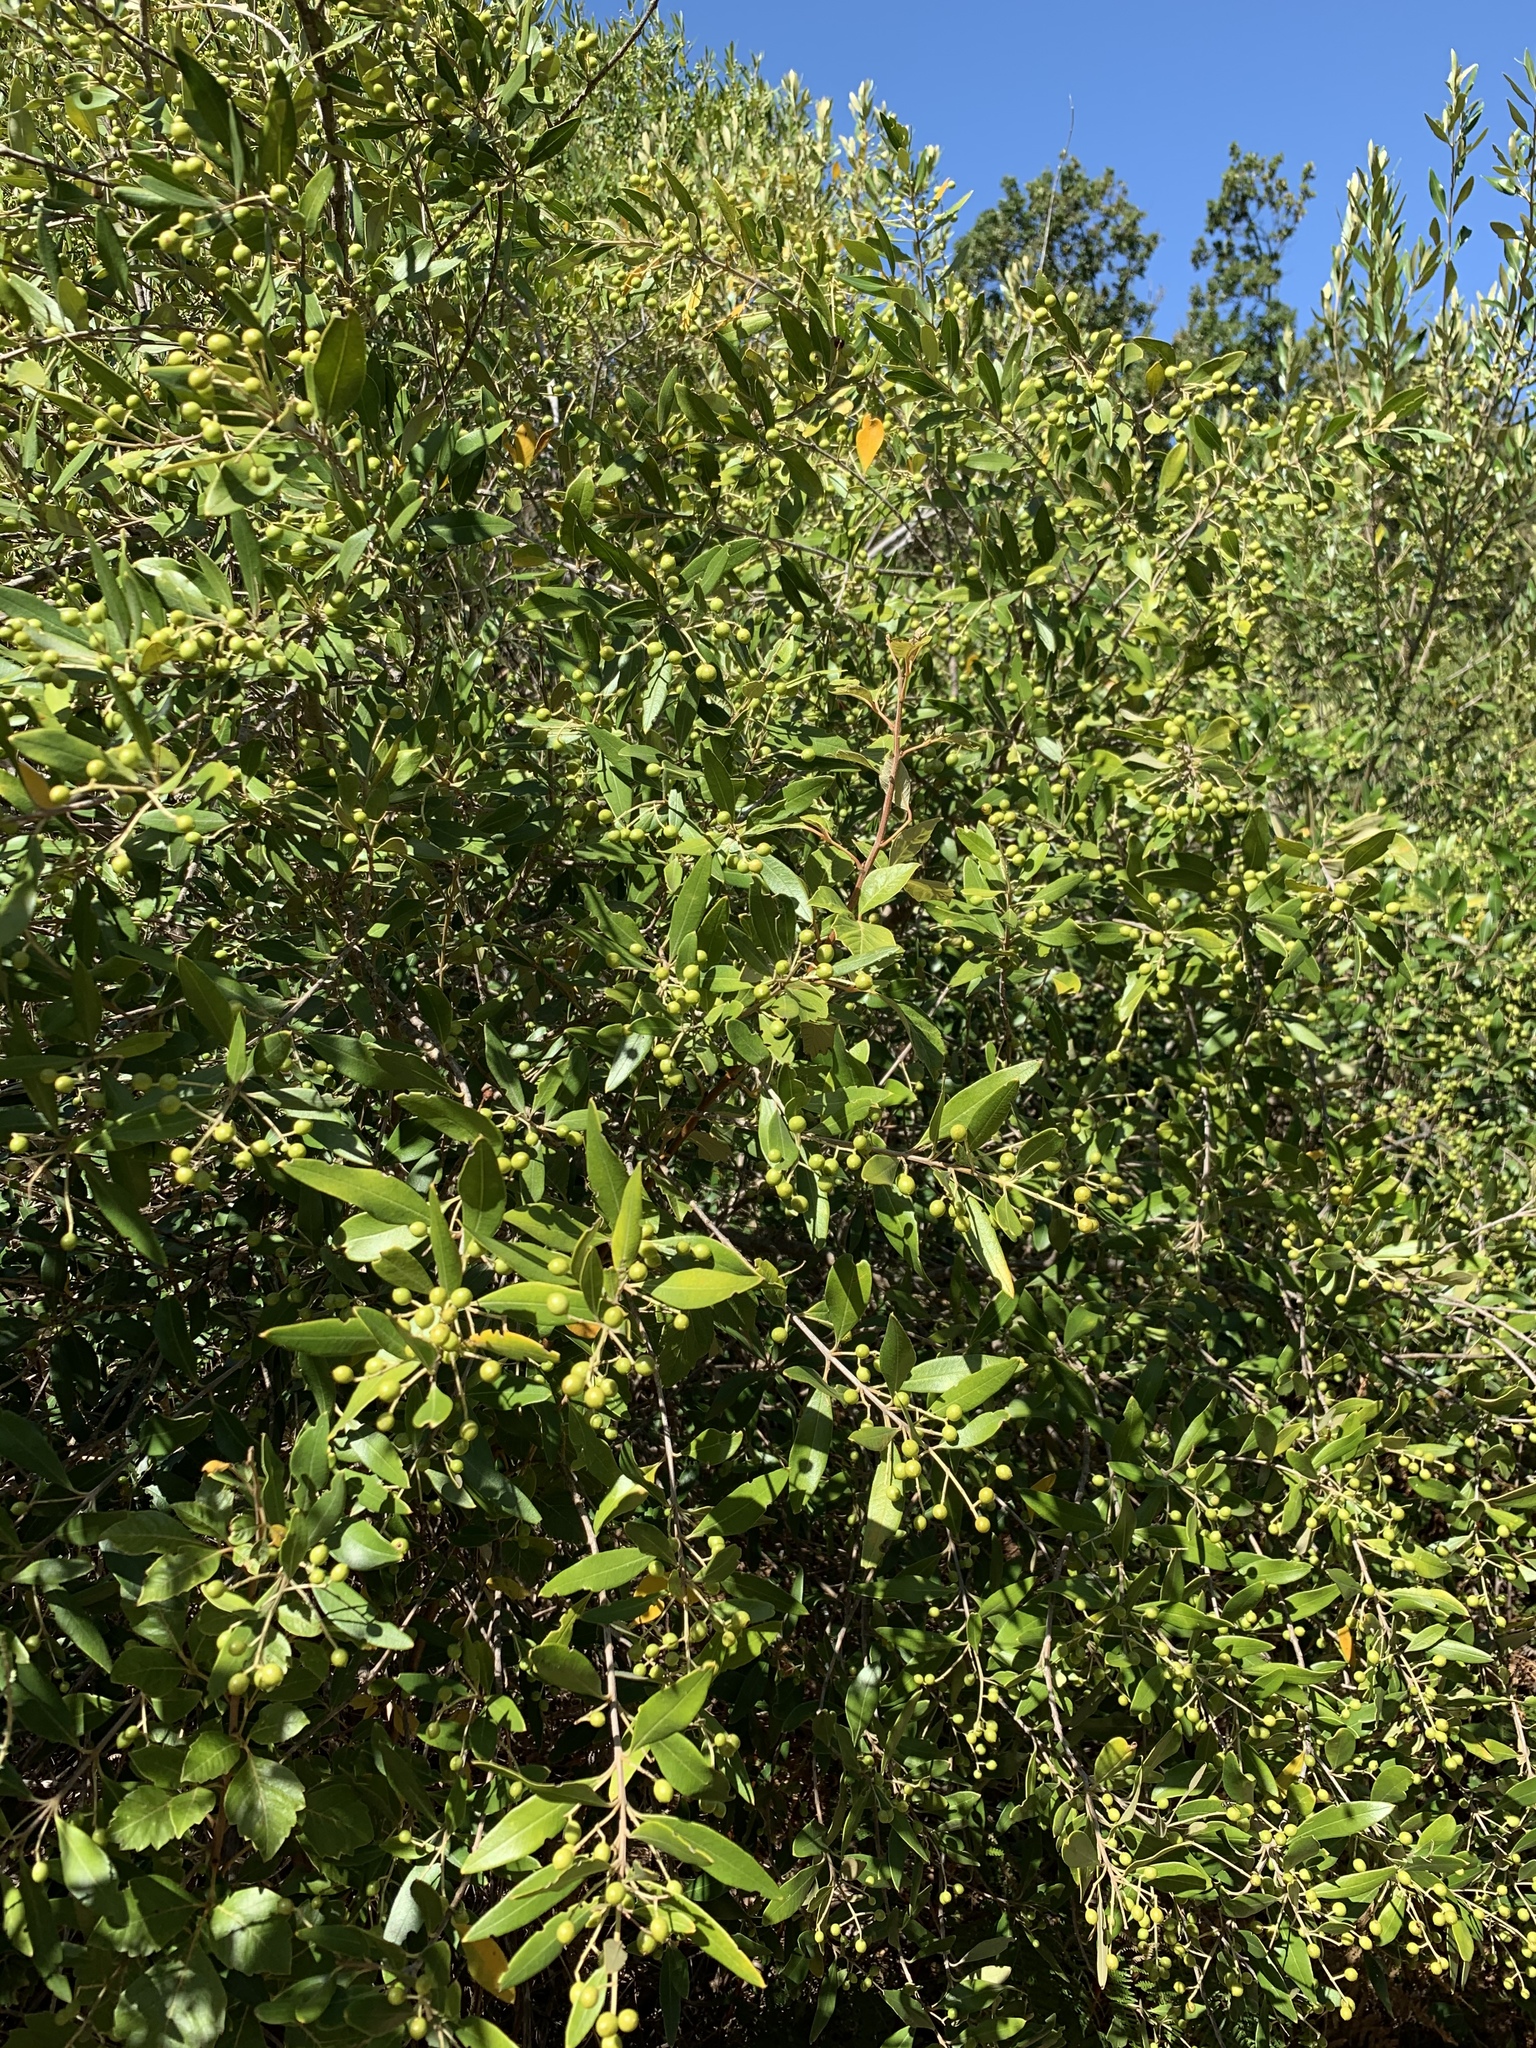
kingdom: Plantae
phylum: Tracheophyta
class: Magnoliopsida
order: Lamiales
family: Oleaceae
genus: Olea
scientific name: Olea europaea
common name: Olive
